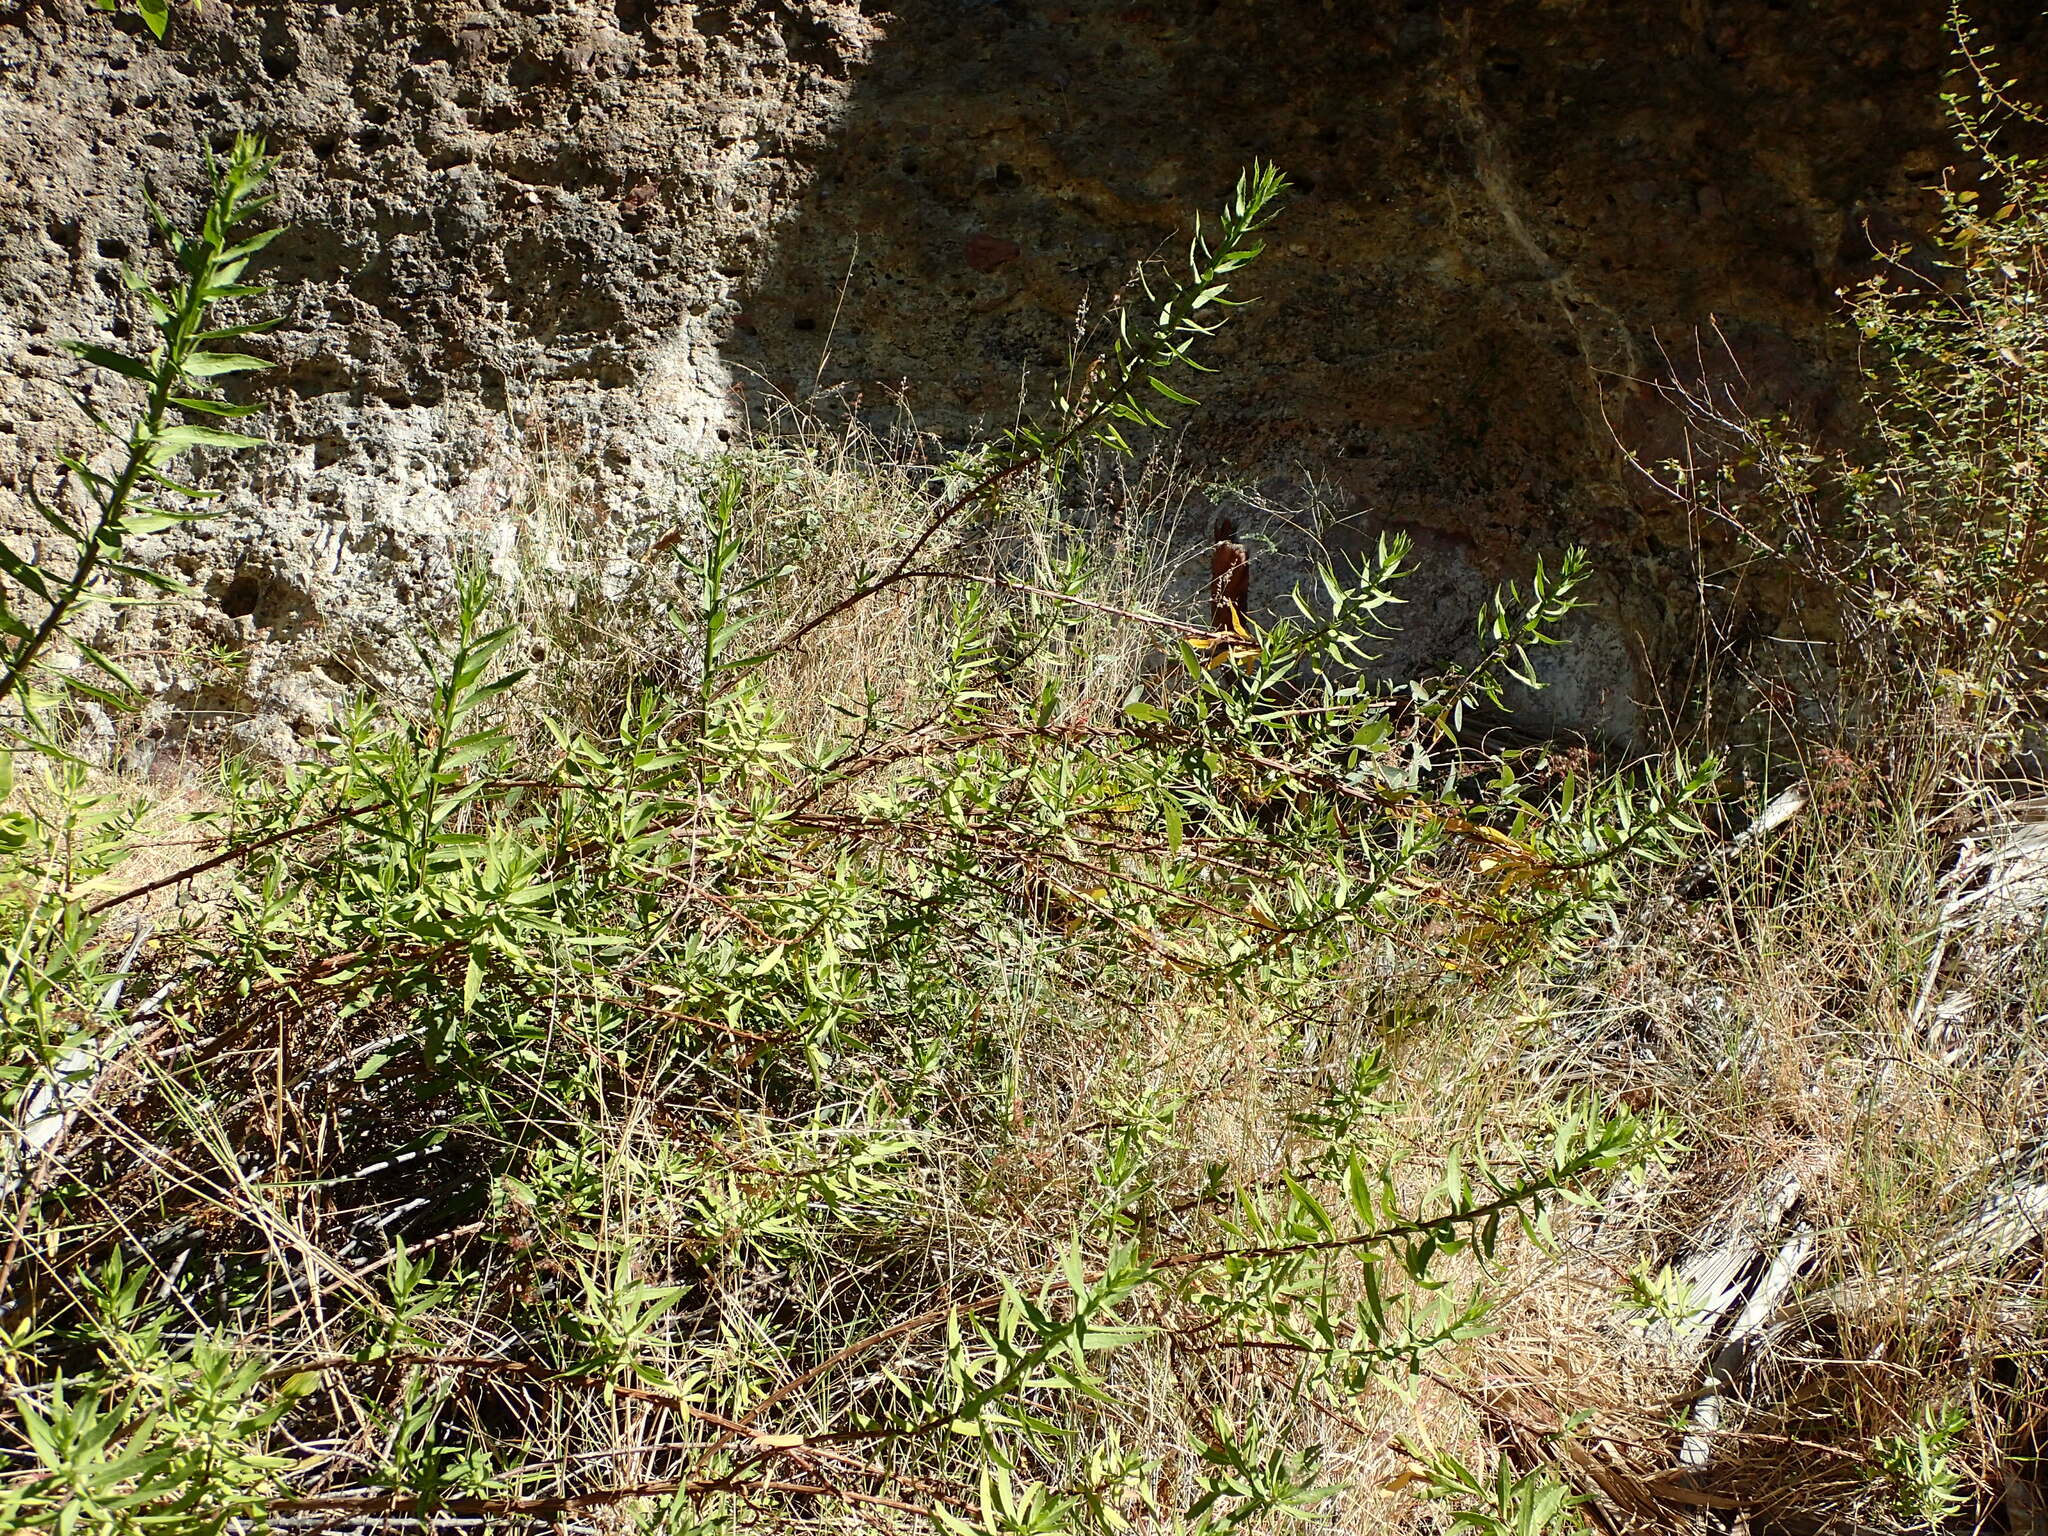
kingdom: Plantae
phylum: Tracheophyta
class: Magnoliopsida
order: Asterales
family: Asteraceae
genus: Pluchea
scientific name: Pluchea salicifolia
